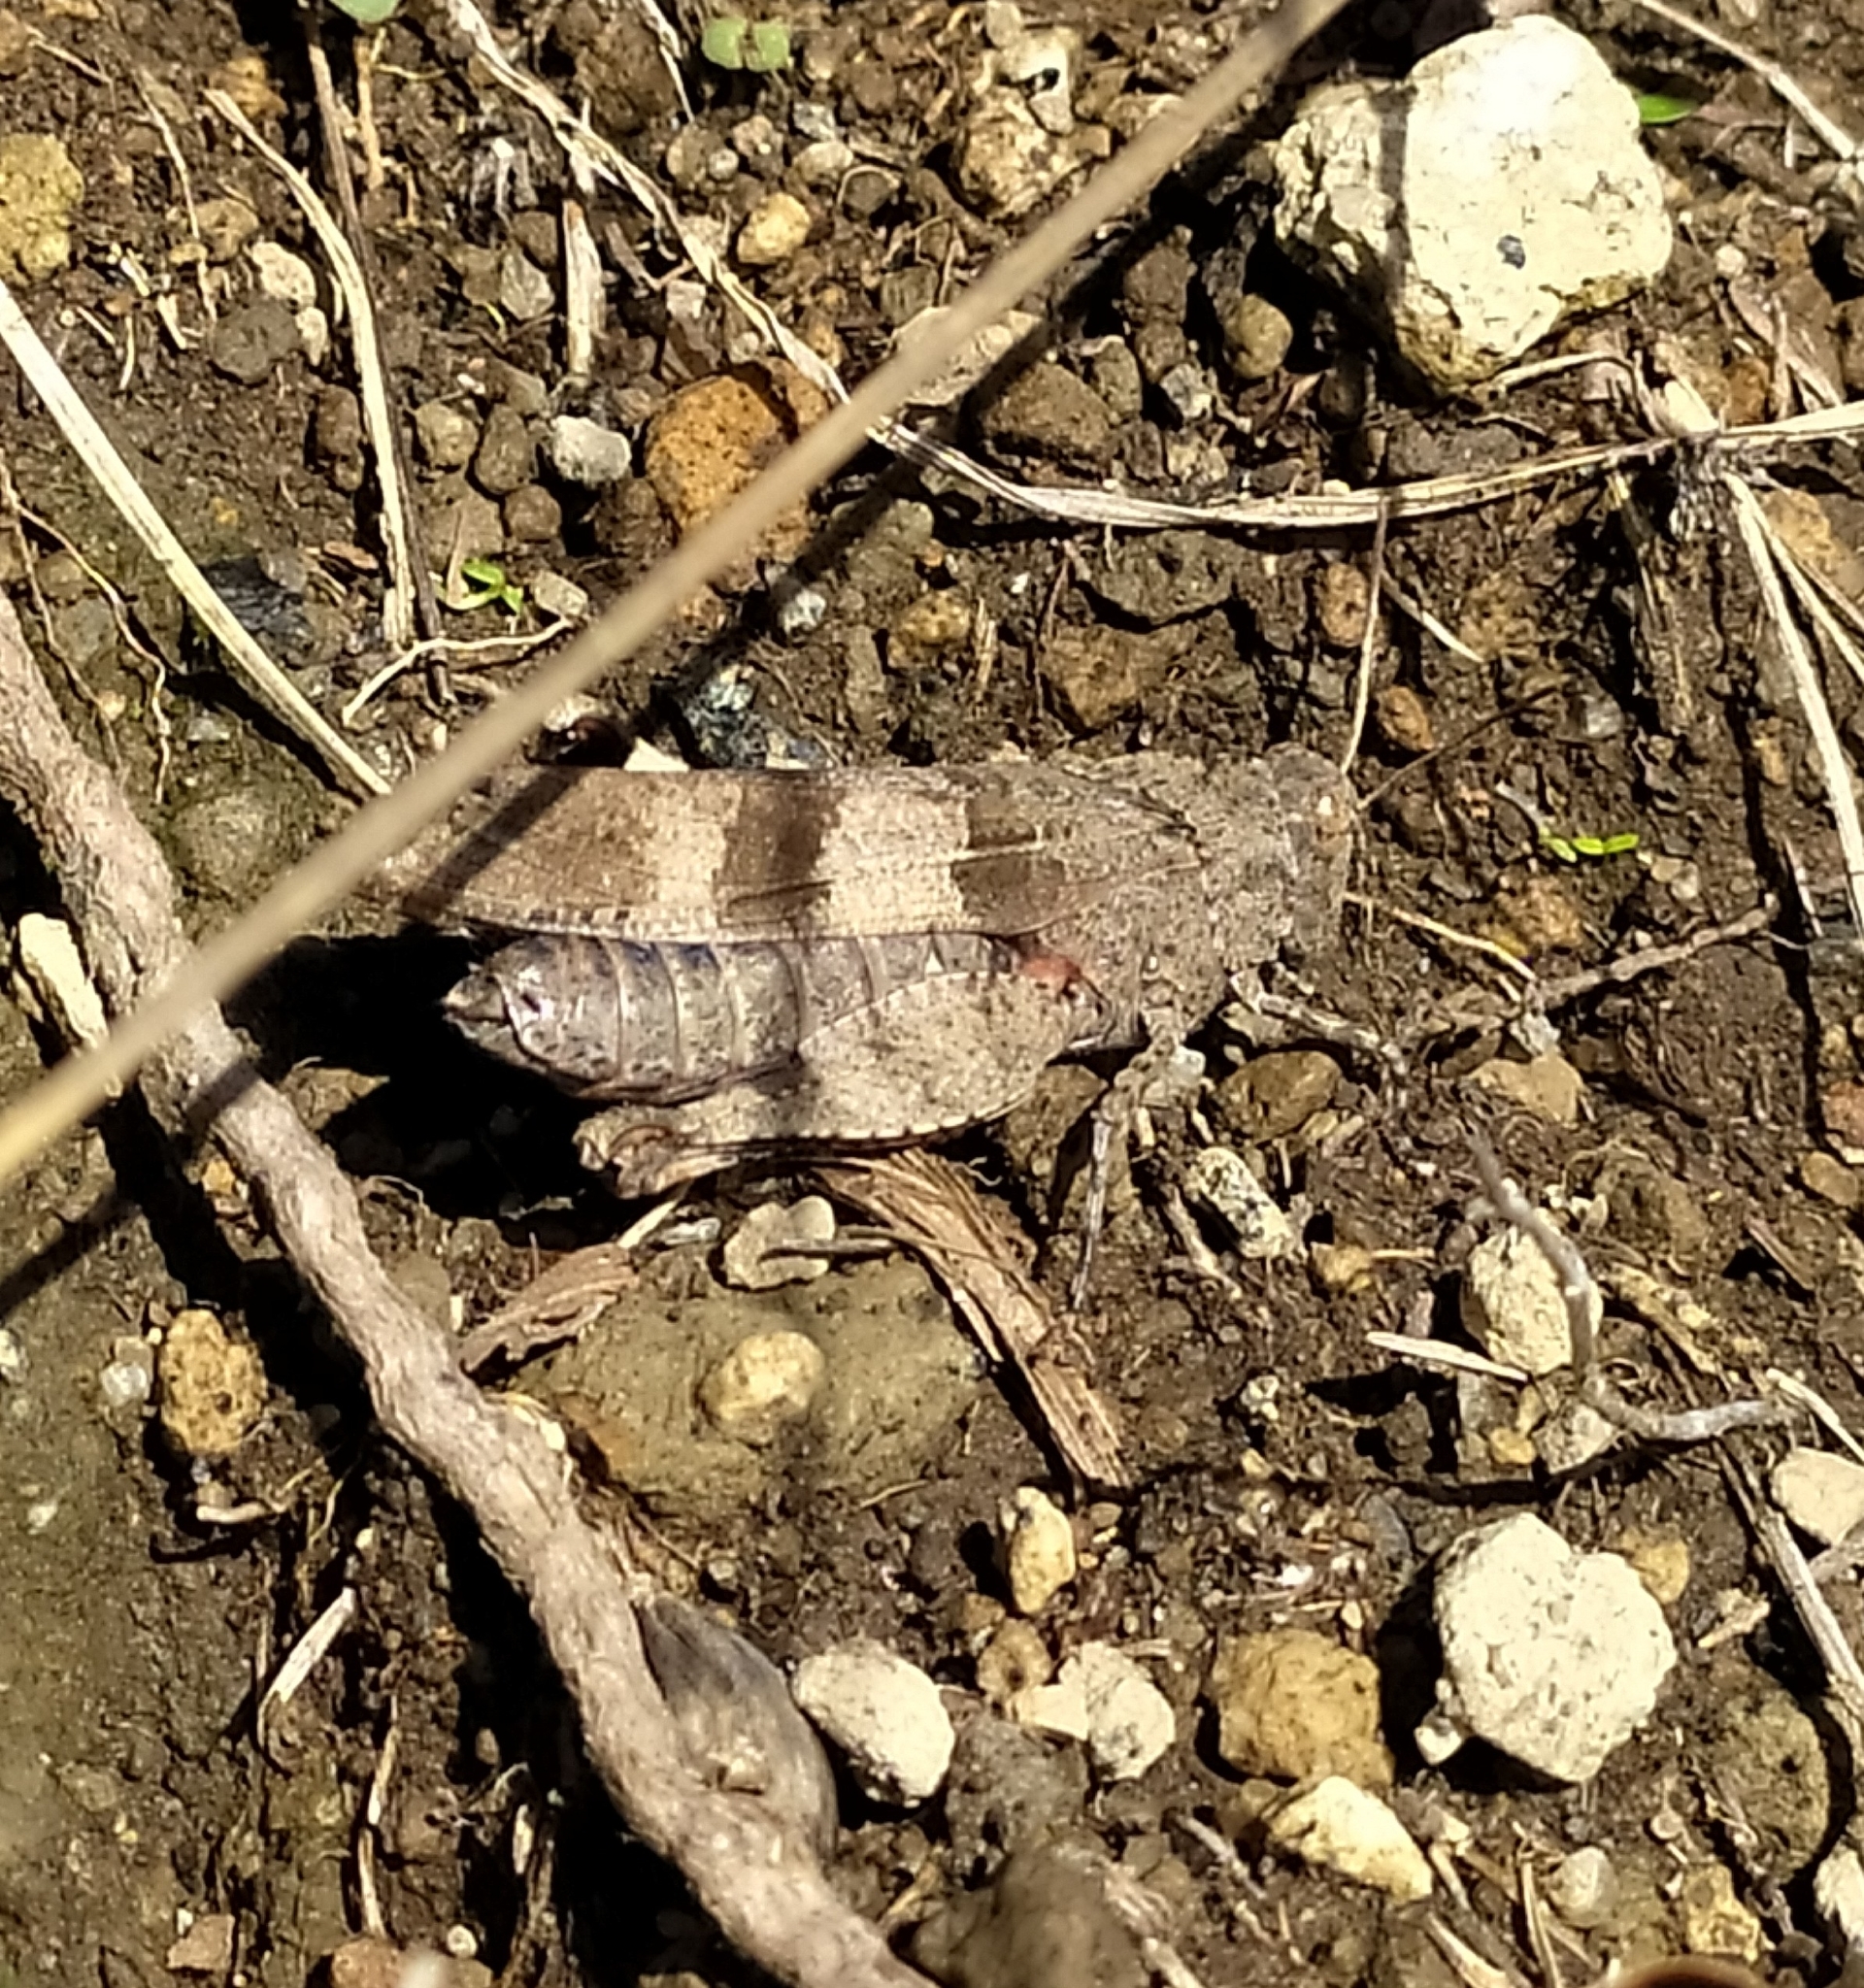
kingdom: Animalia
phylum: Arthropoda
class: Insecta
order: Orthoptera
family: Acrididae
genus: Oedipoda
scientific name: Oedipoda caerulescens
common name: Blue-winged grasshopper
